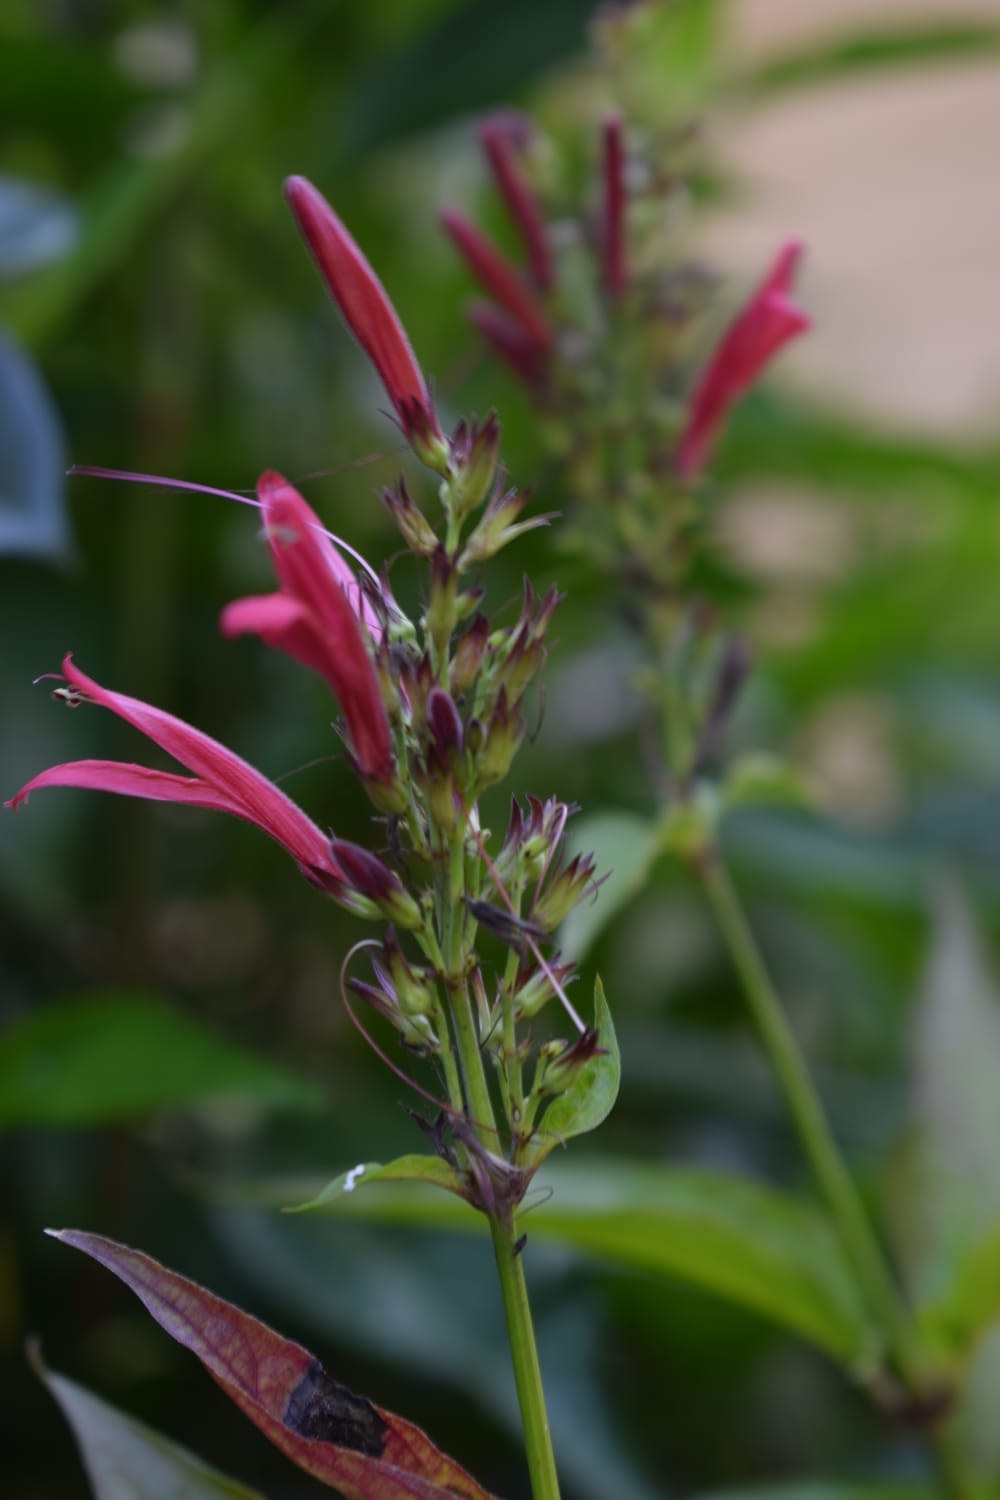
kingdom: Plantae
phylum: Tracheophyta
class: Magnoliopsida
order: Lamiales
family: Acanthaceae
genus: Dianthera
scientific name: Dianthera secunda
